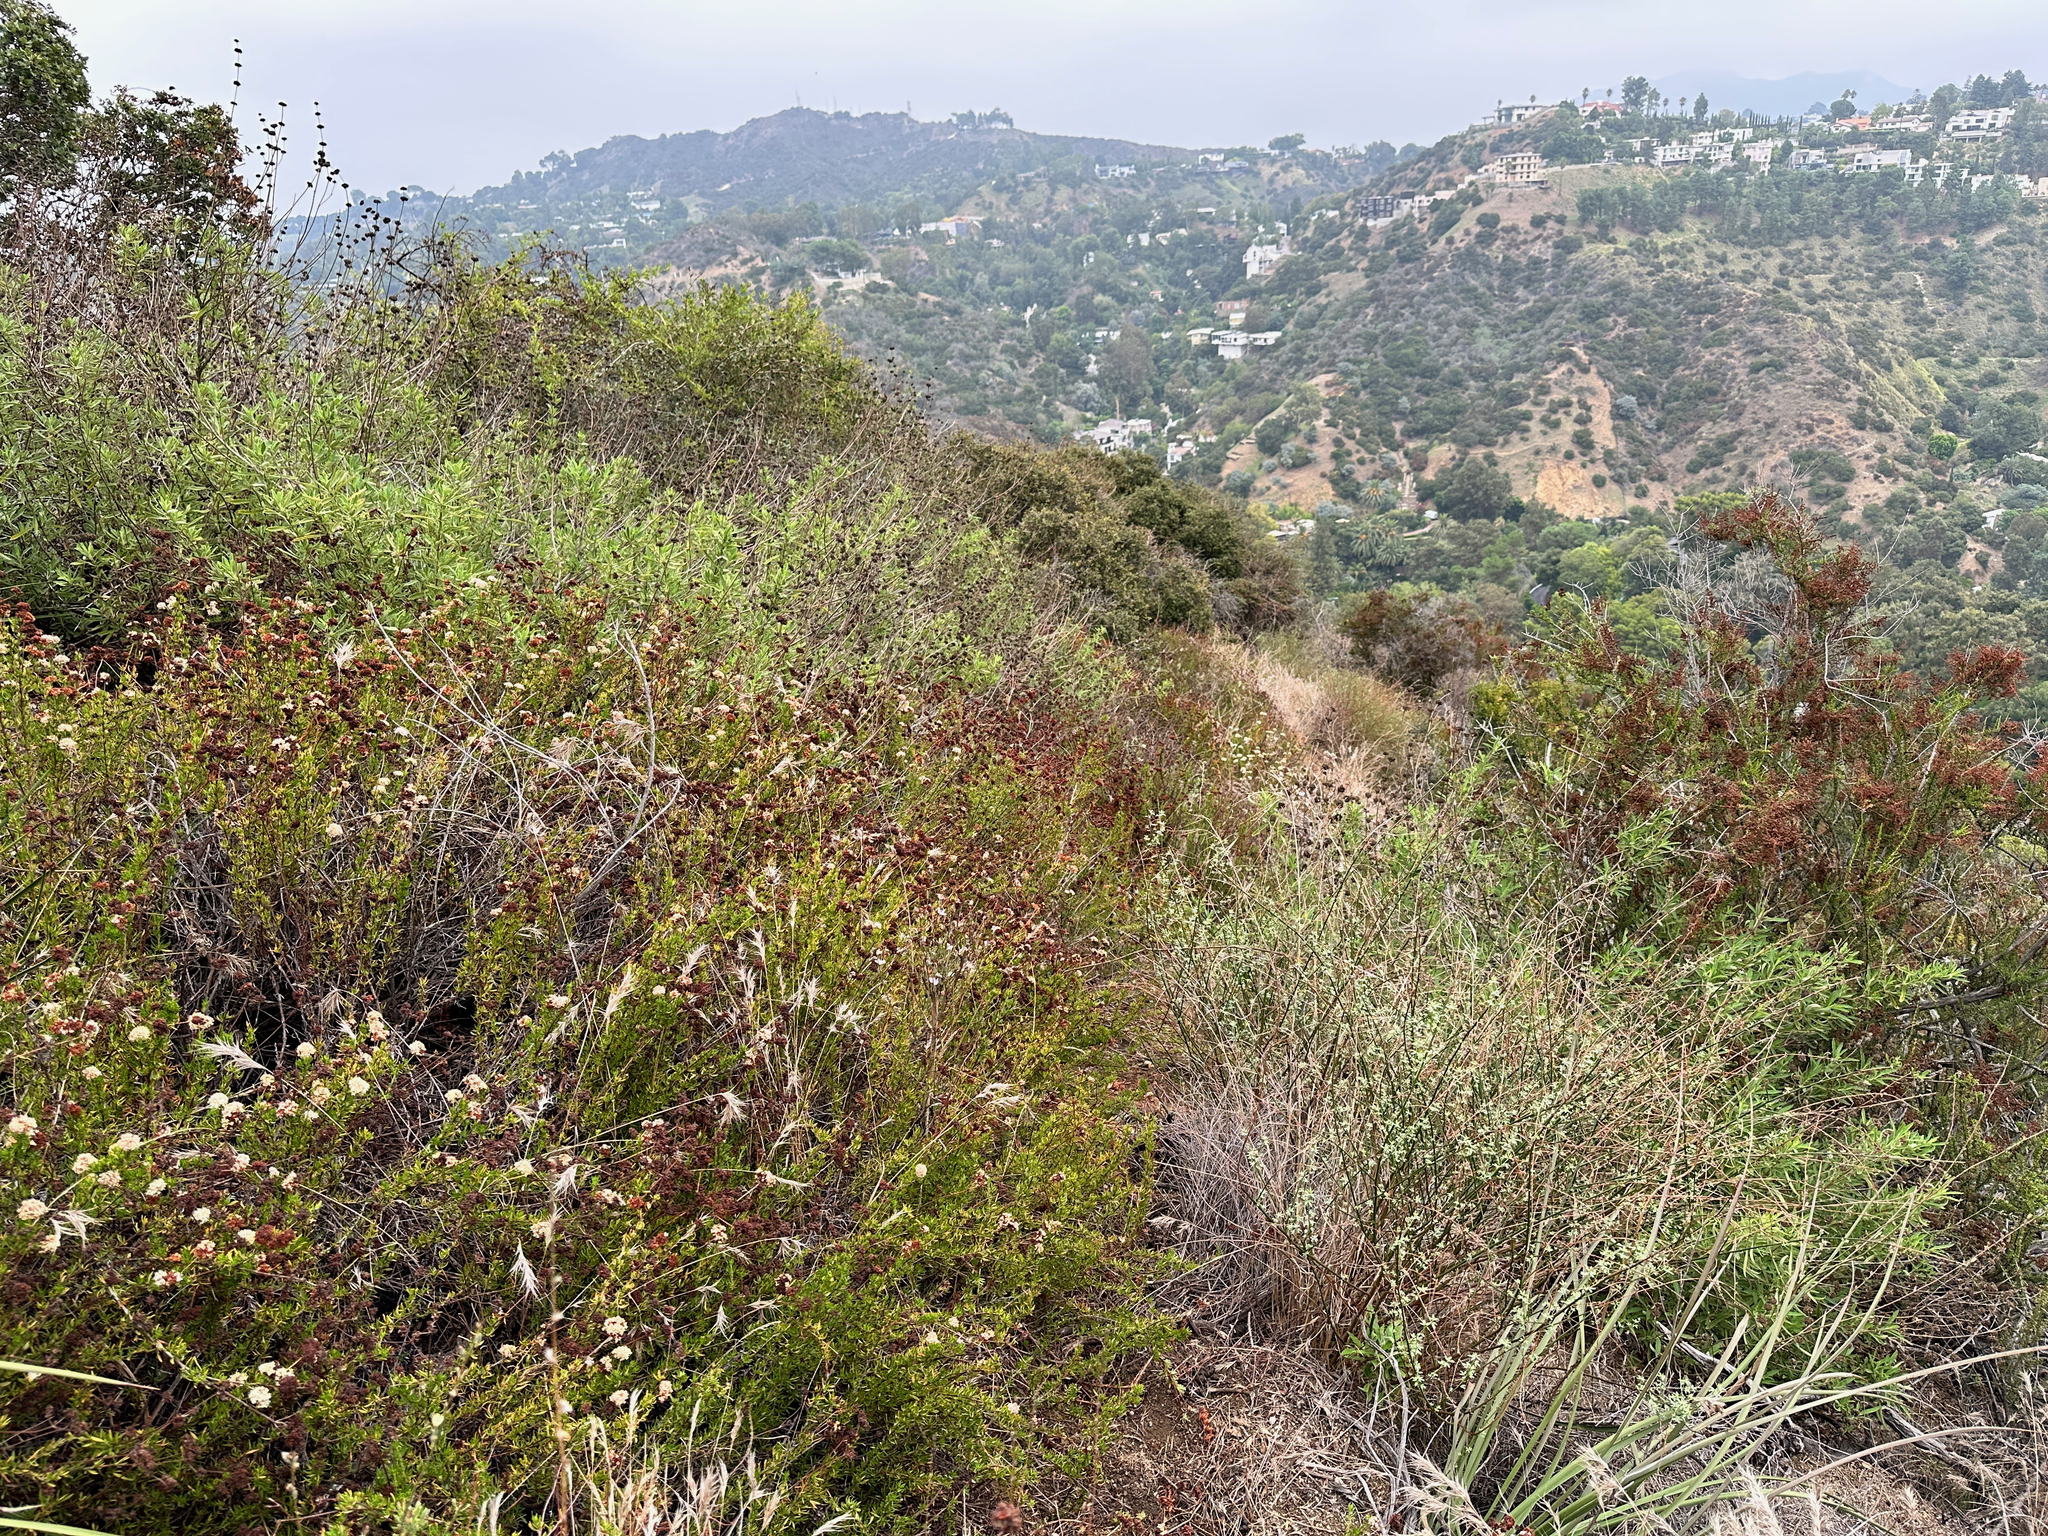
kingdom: Plantae
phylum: Tracheophyta
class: Magnoliopsida
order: Caryophyllales
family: Polygonaceae
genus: Eriogonum
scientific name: Eriogonum fasciculatum
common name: California wild buckwheat
